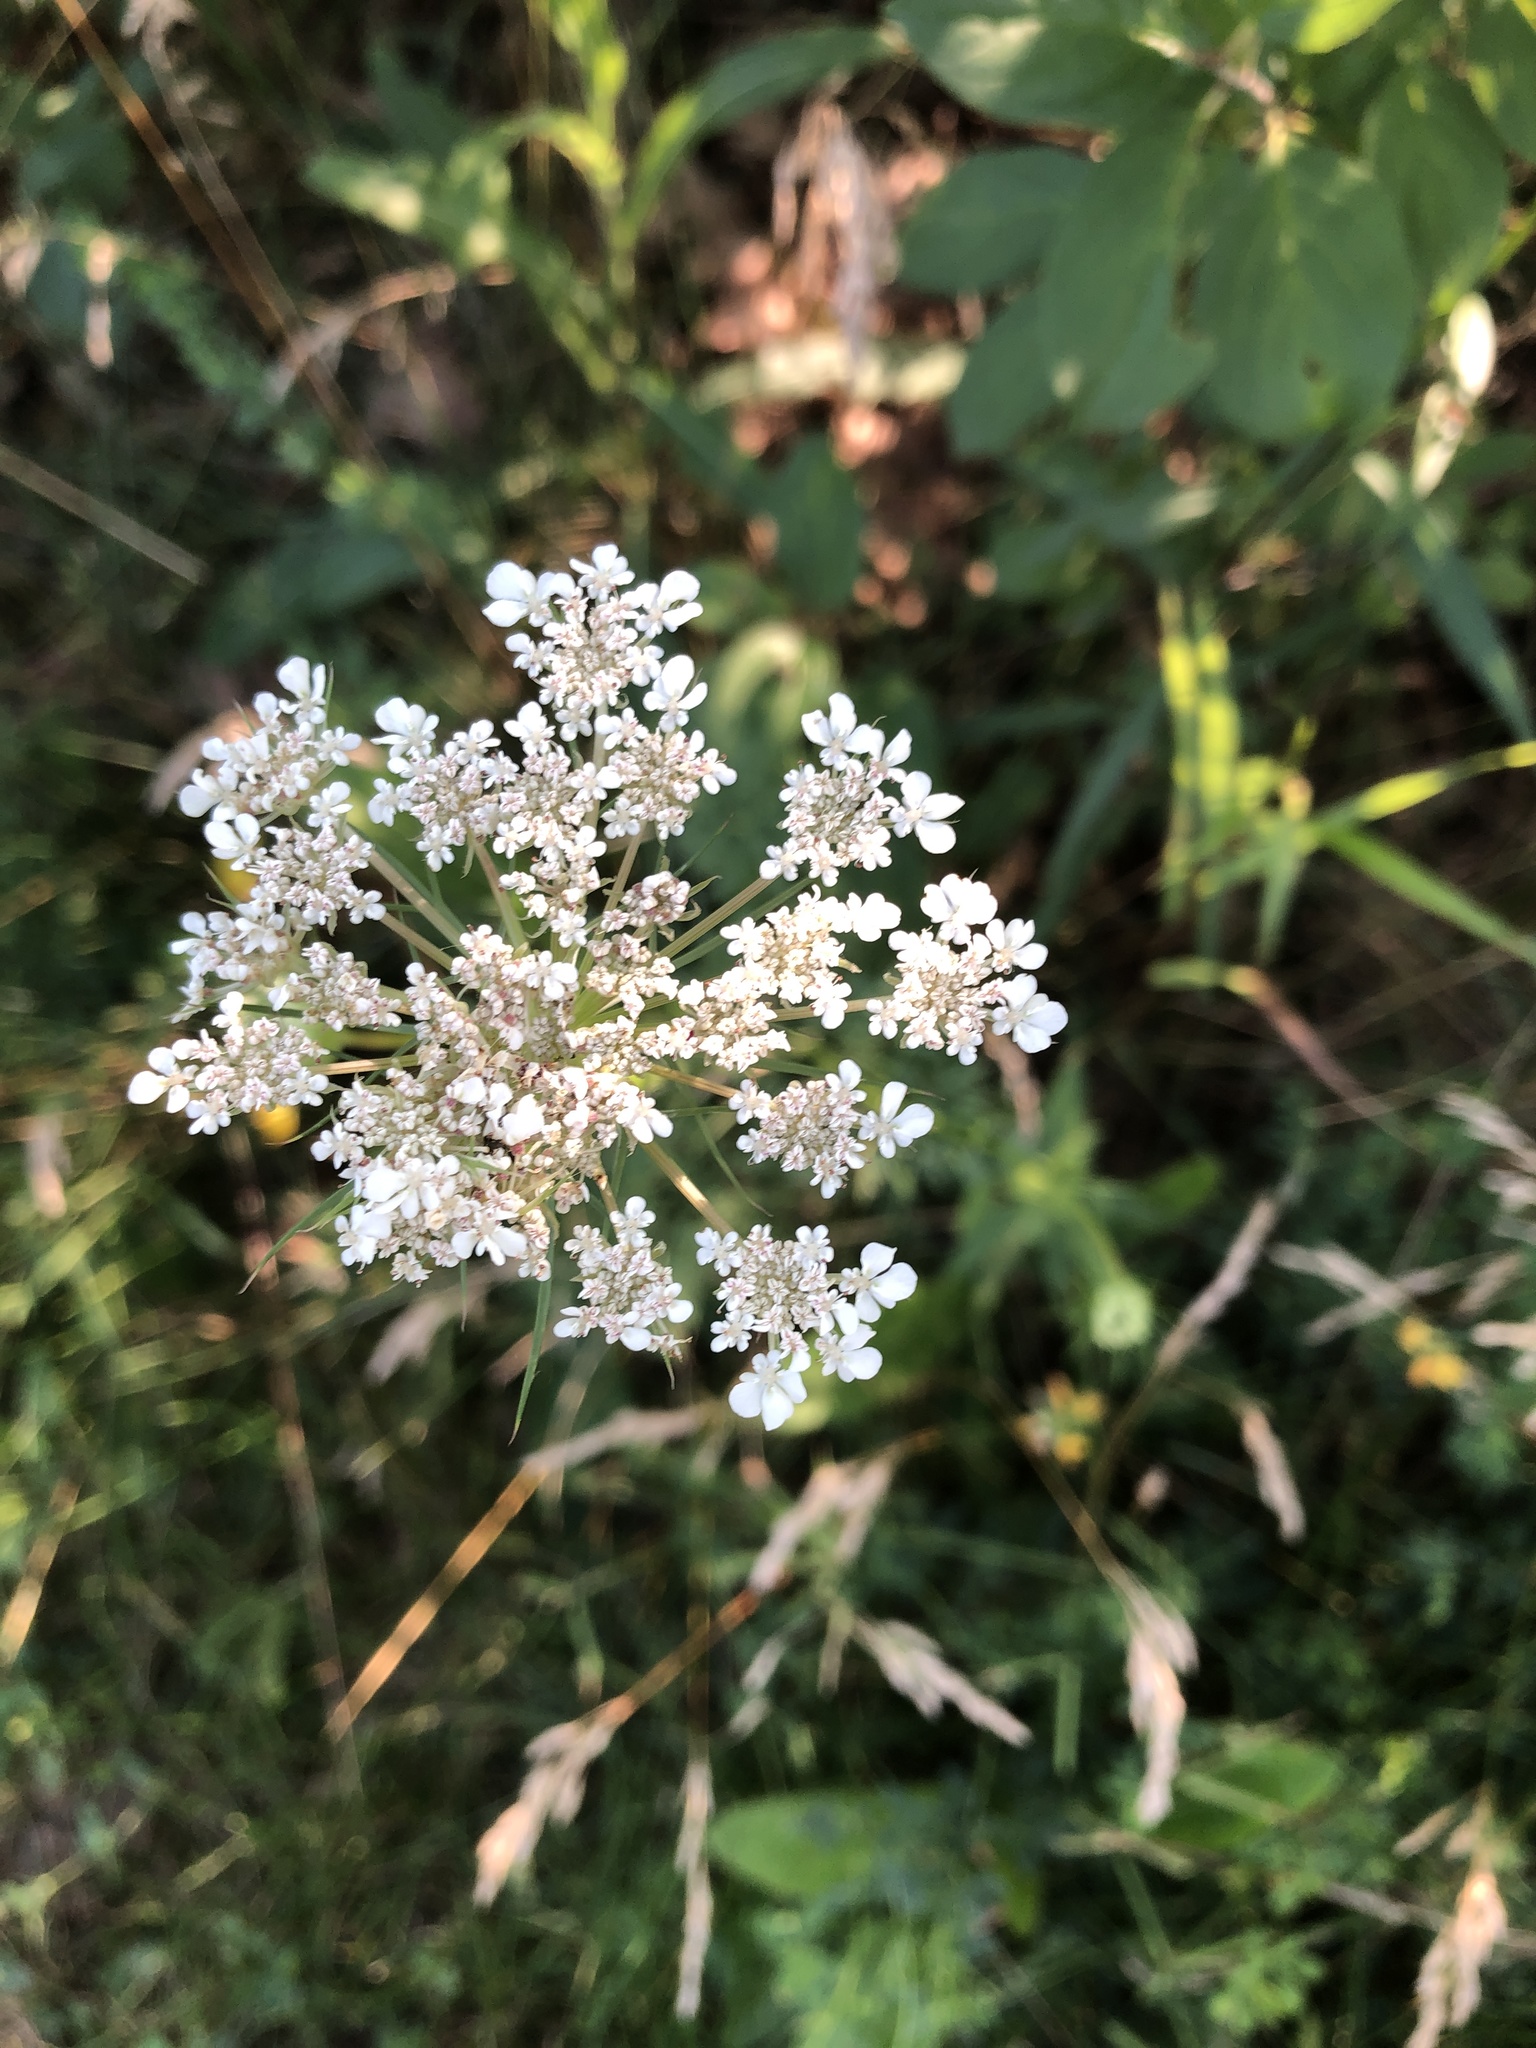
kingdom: Plantae
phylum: Tracheophyta
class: Magnoliopsida
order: Apiales
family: Apiaceae
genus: Daucus
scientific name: Daucus carota
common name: Wild carrot
